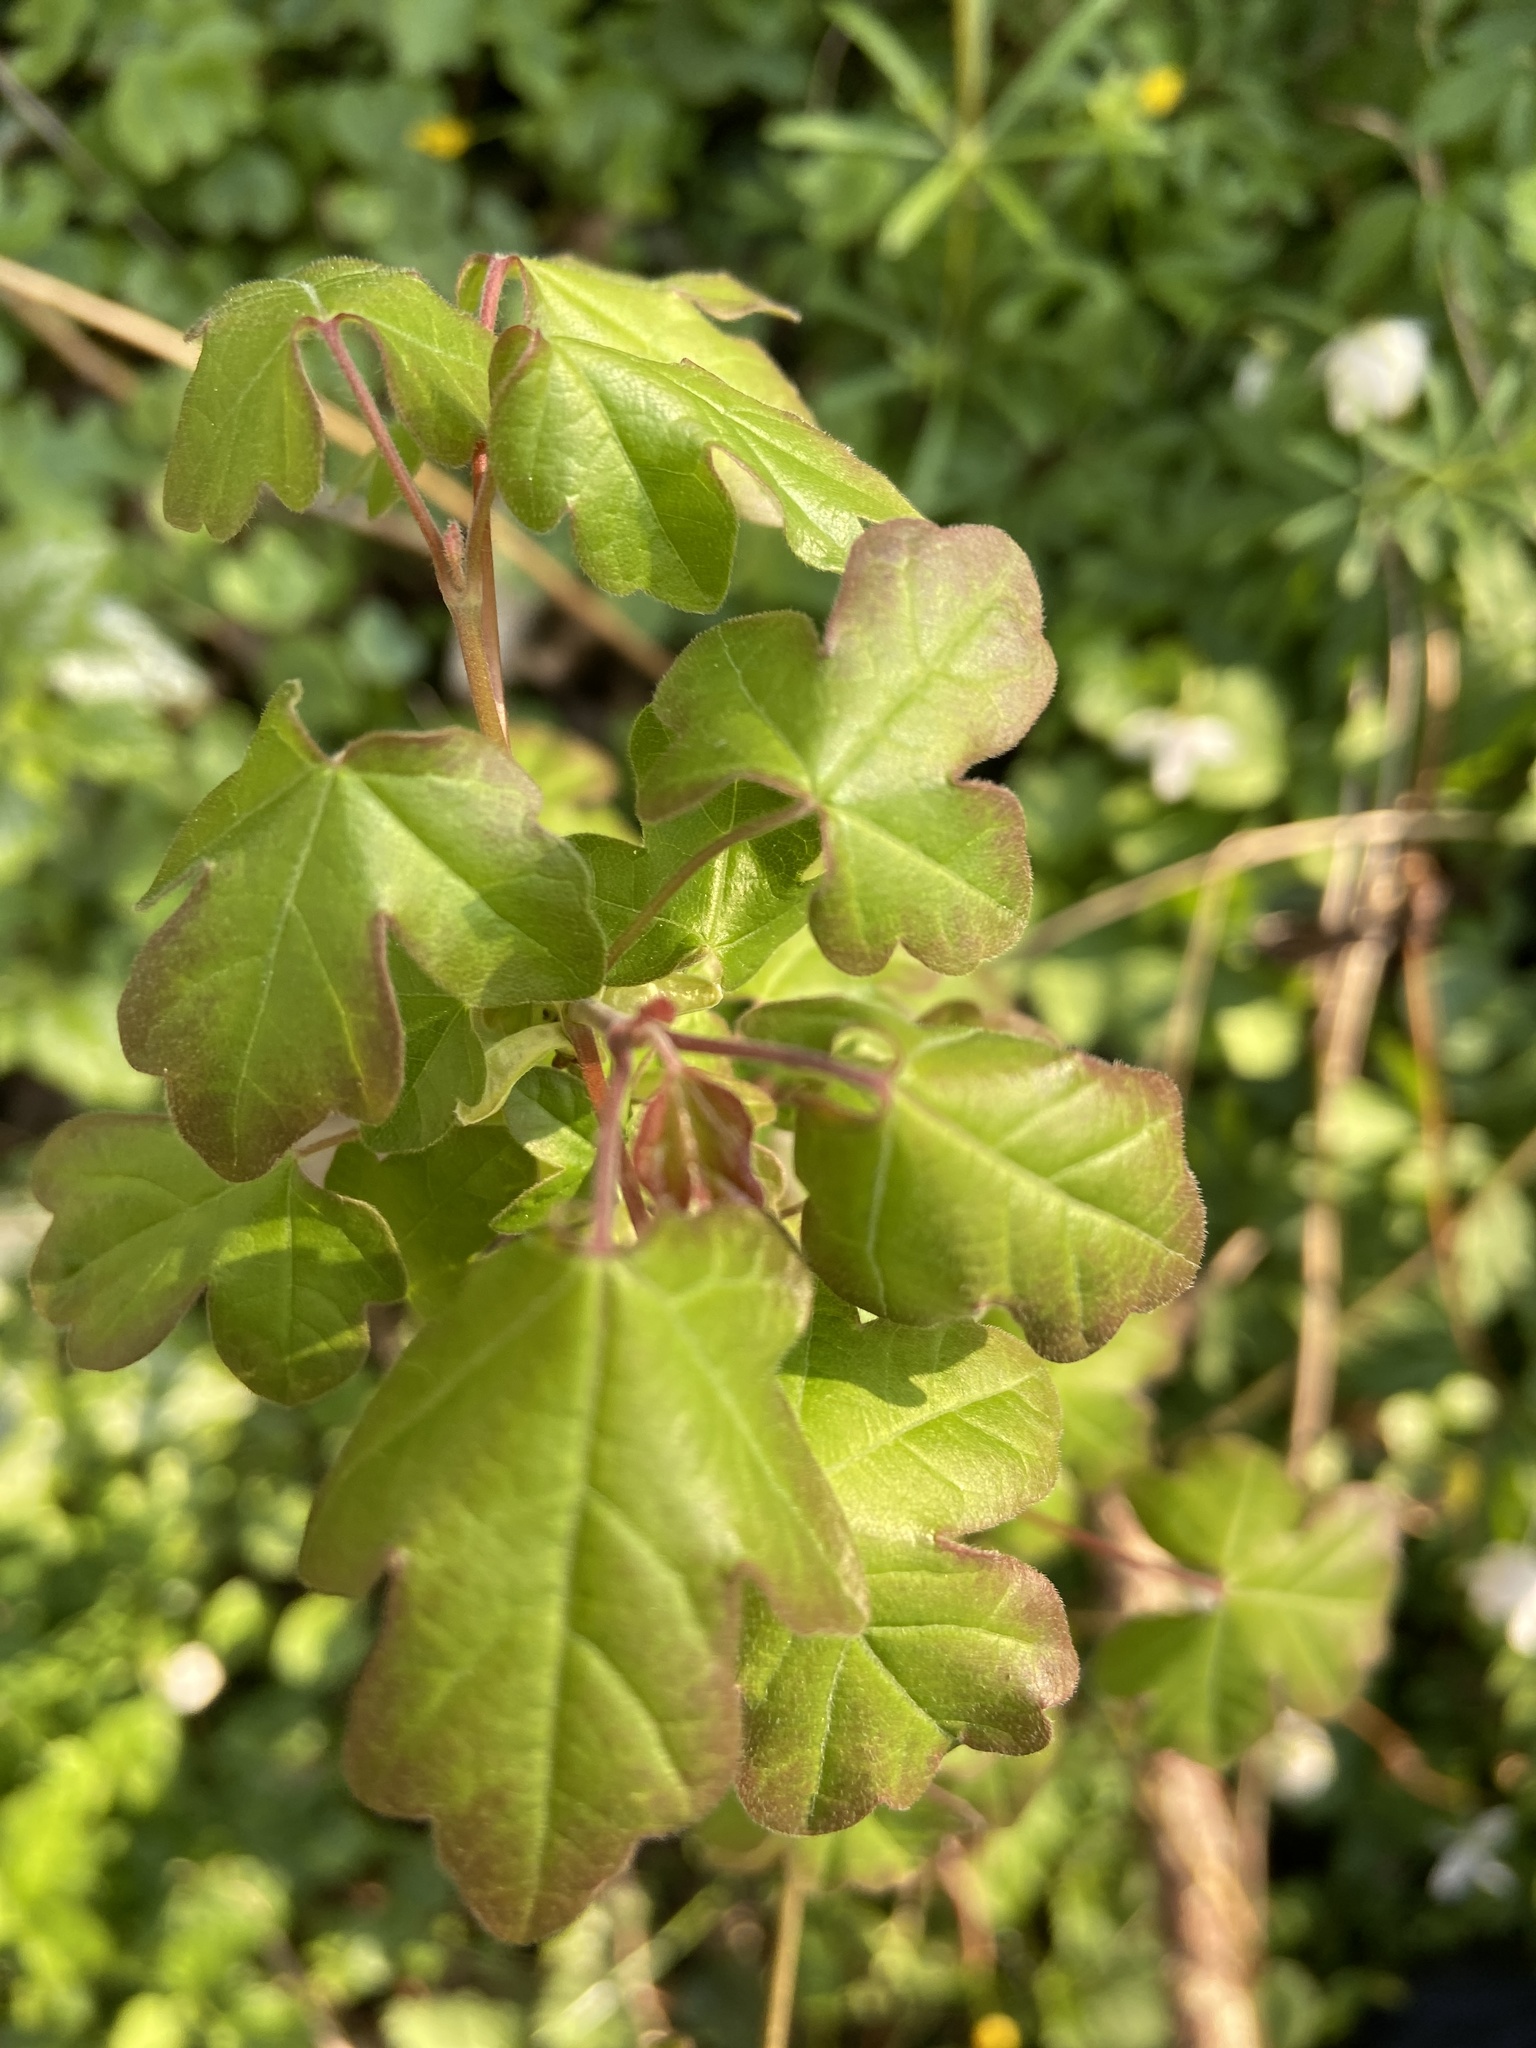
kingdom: Plantae
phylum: Tracheophyta
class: Magnoliopsida
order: Sapindales
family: Sapindaceae
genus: Acer
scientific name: Acer campestre
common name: Field maple
